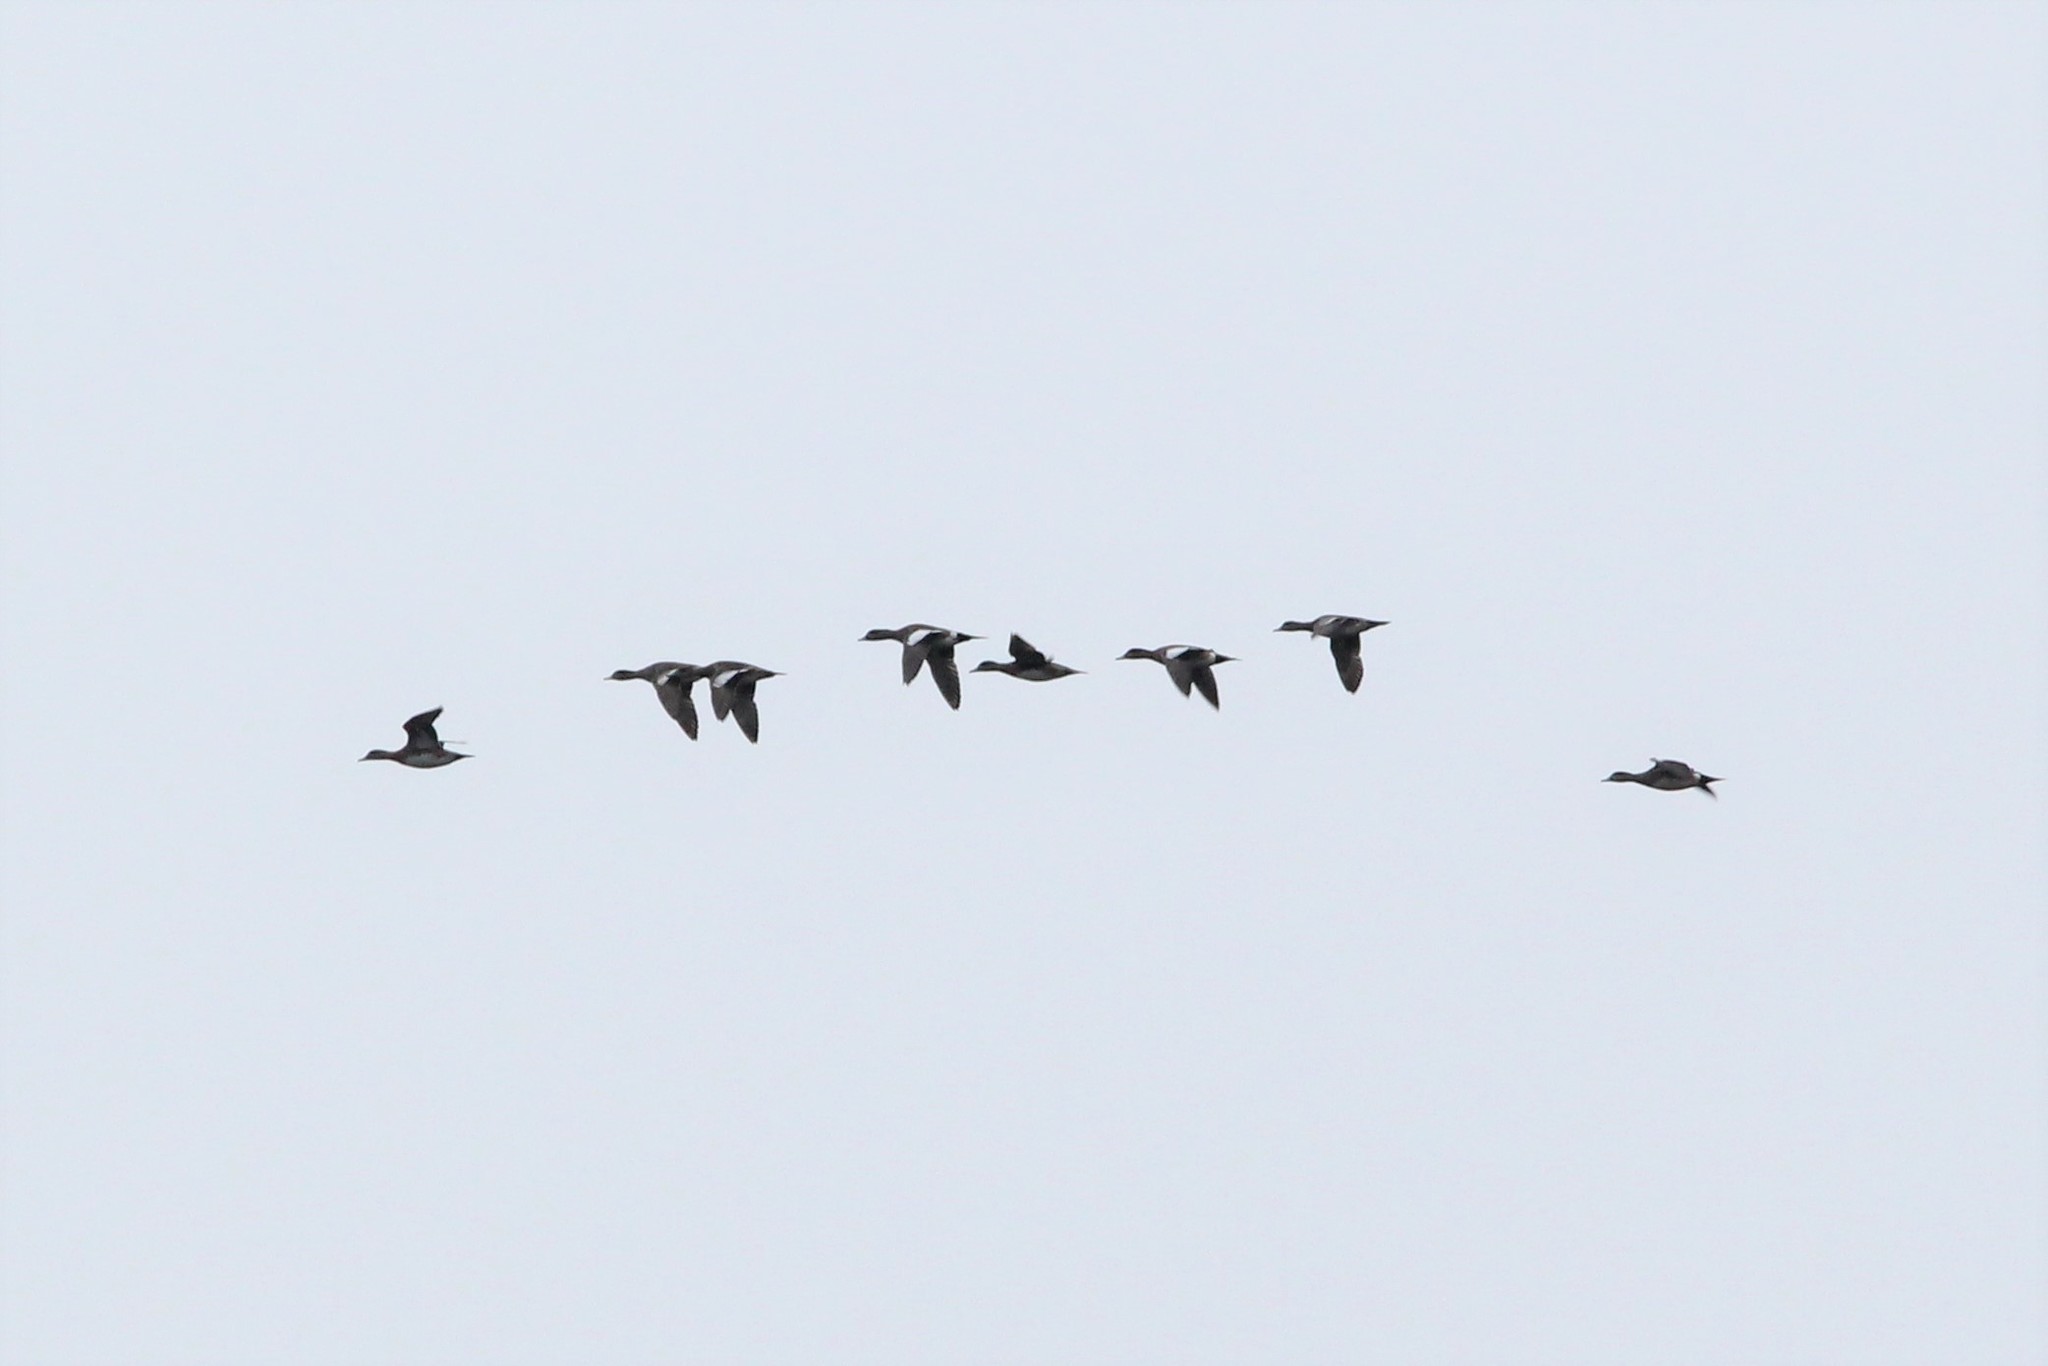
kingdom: Animalia
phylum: Chordata
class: Aves
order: Anseriformes
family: Anatidae
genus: Mareca
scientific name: Mareca americana
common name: American wigeon
